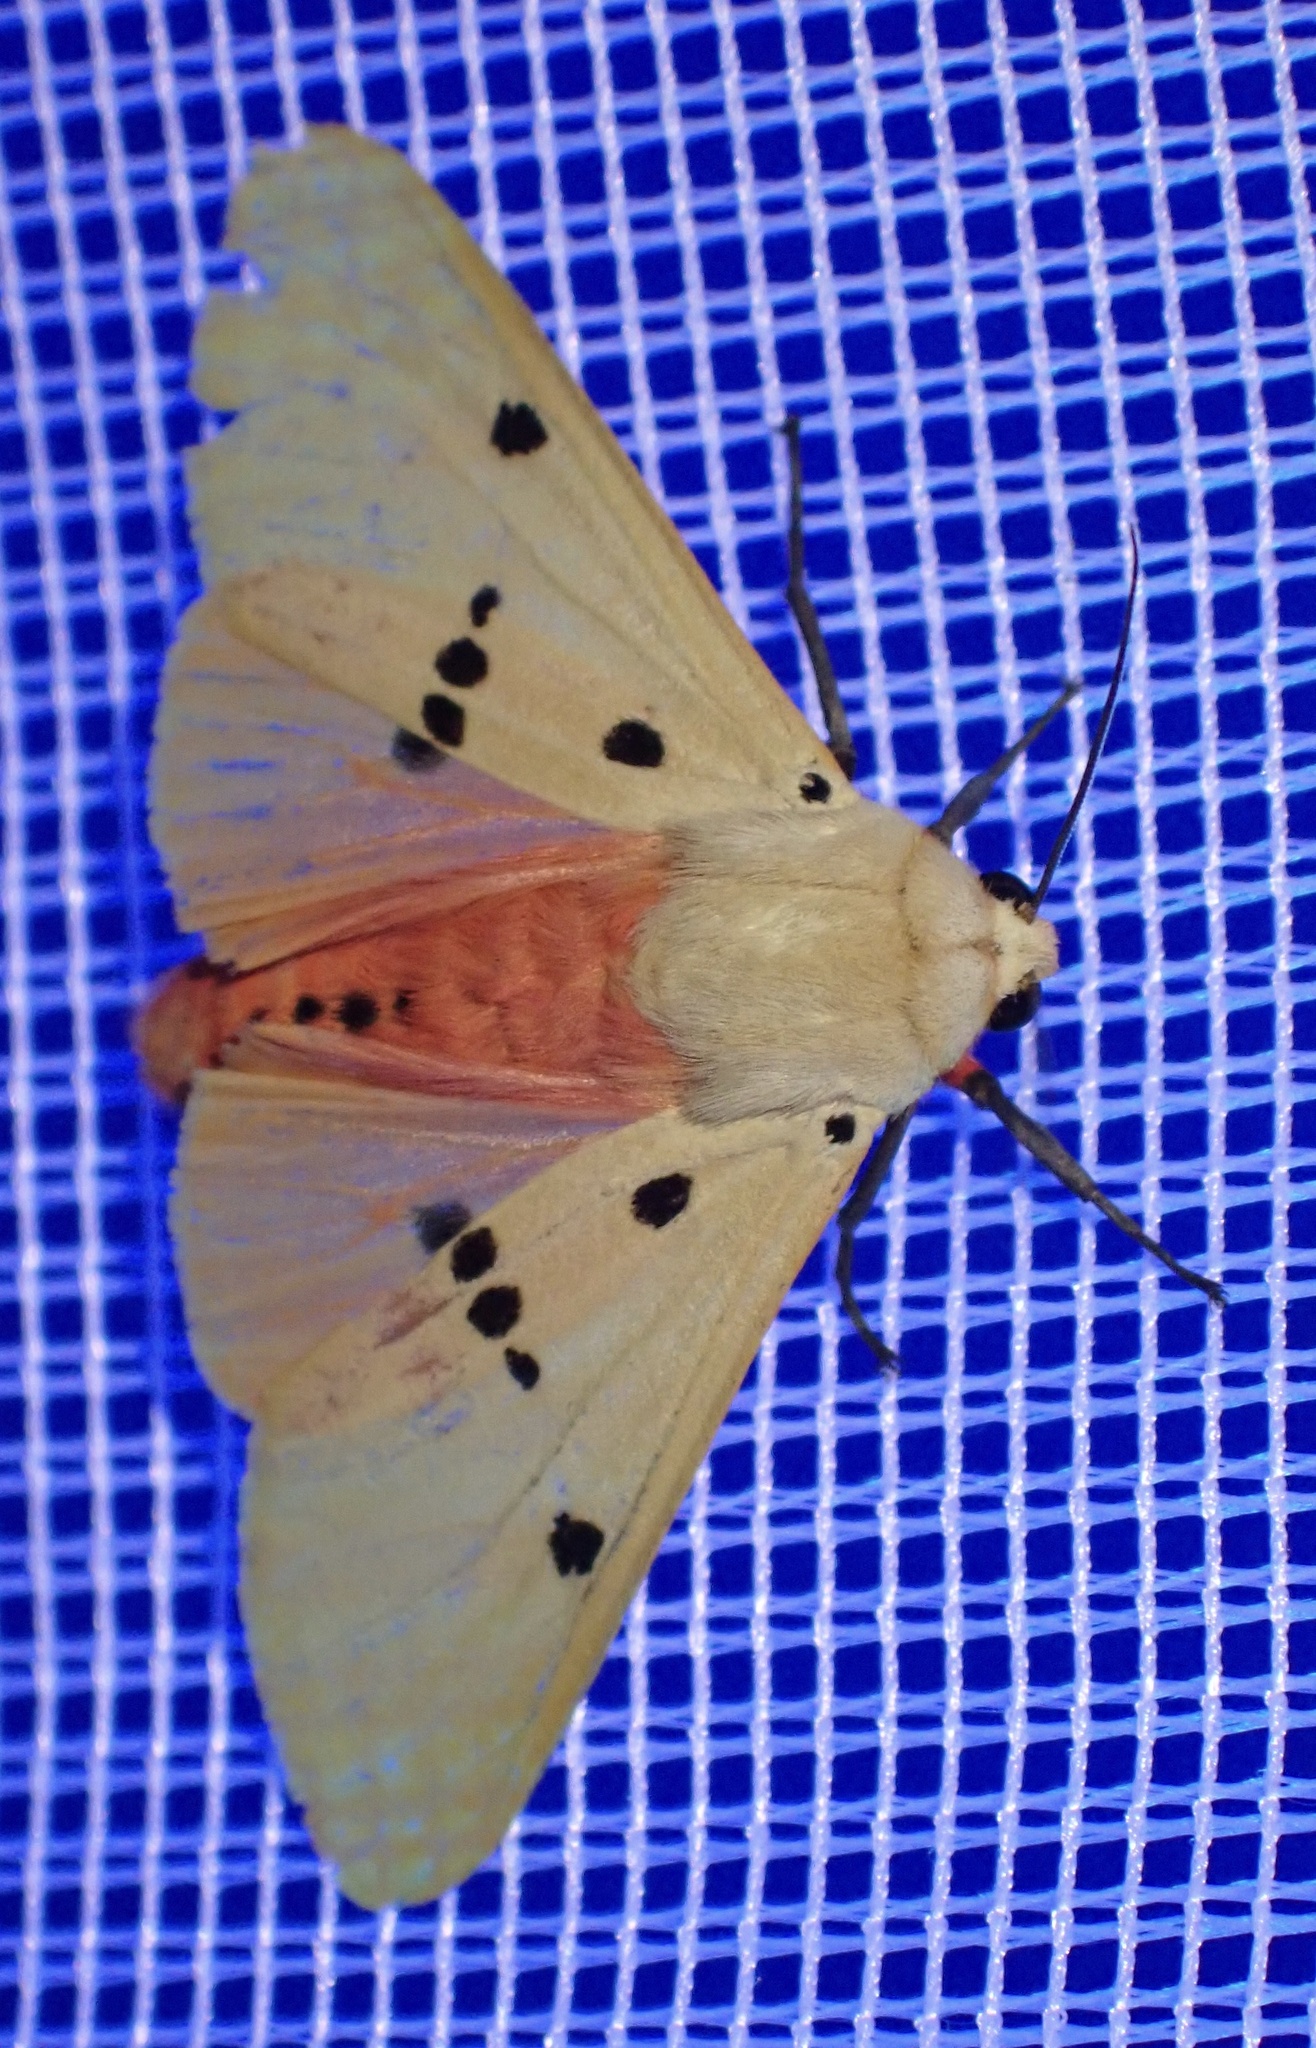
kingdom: Animalia
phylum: Arthropoda
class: Insecta
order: Lepidoptera
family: Erebidae
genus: Nicetosoma
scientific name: Nicetosoma
